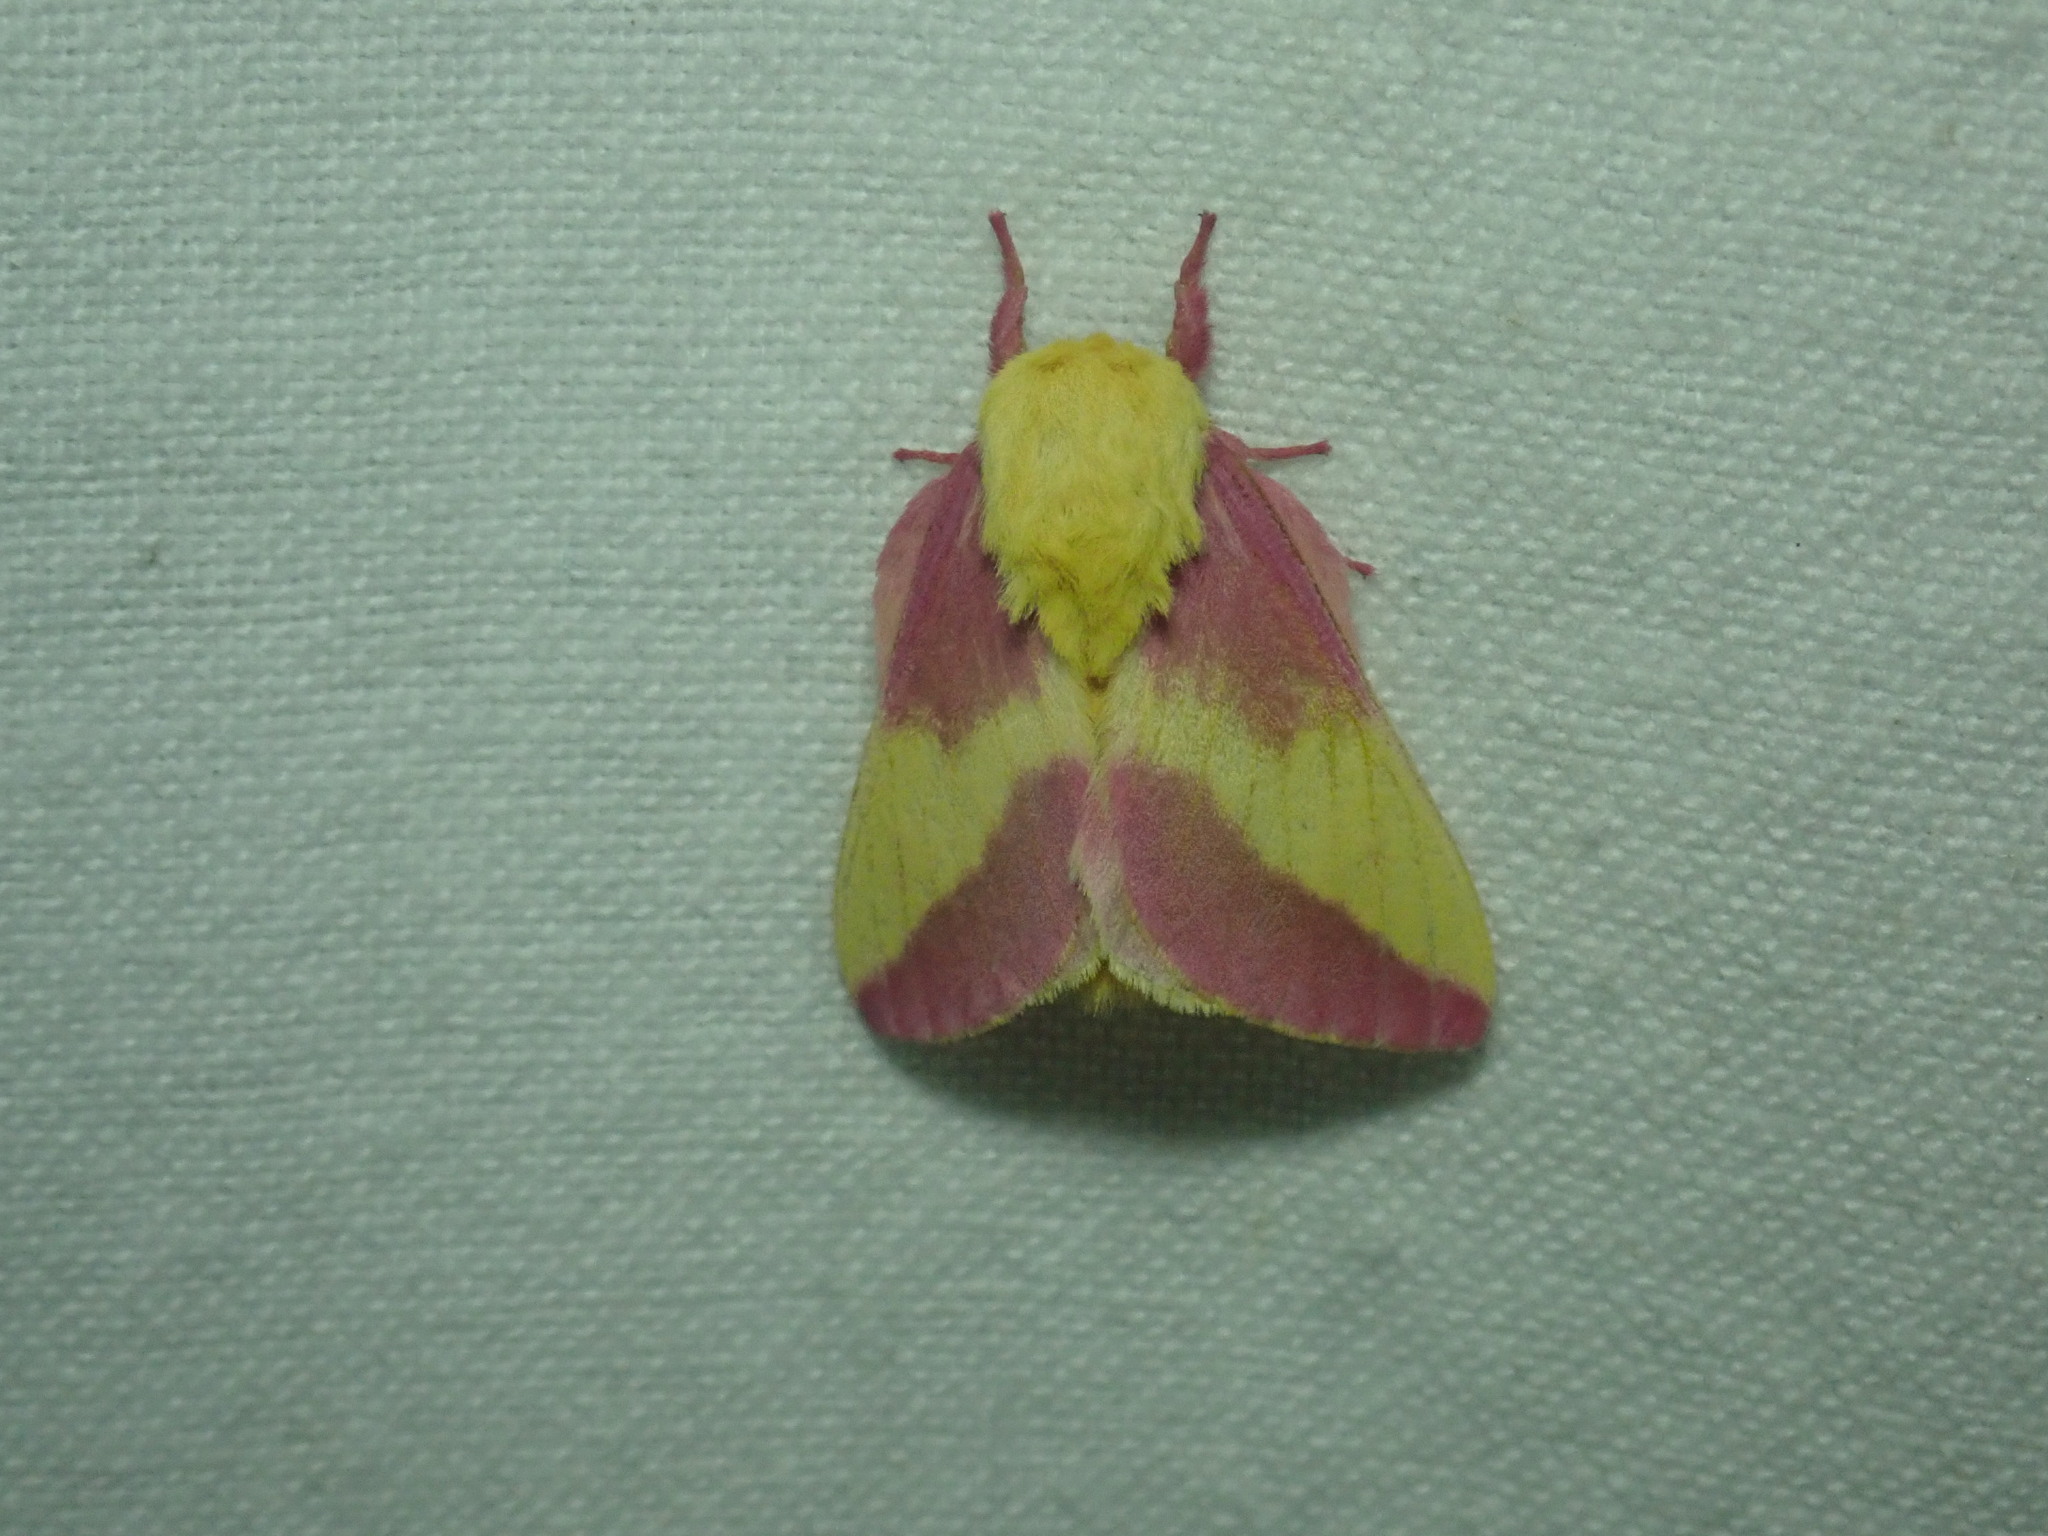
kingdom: Animalia
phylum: Arthropoda
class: Insecta
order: Lepidoptera
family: Saturniidae
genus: Dryocampa
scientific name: Dryocampa rubicunda
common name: Rosy maple moth
